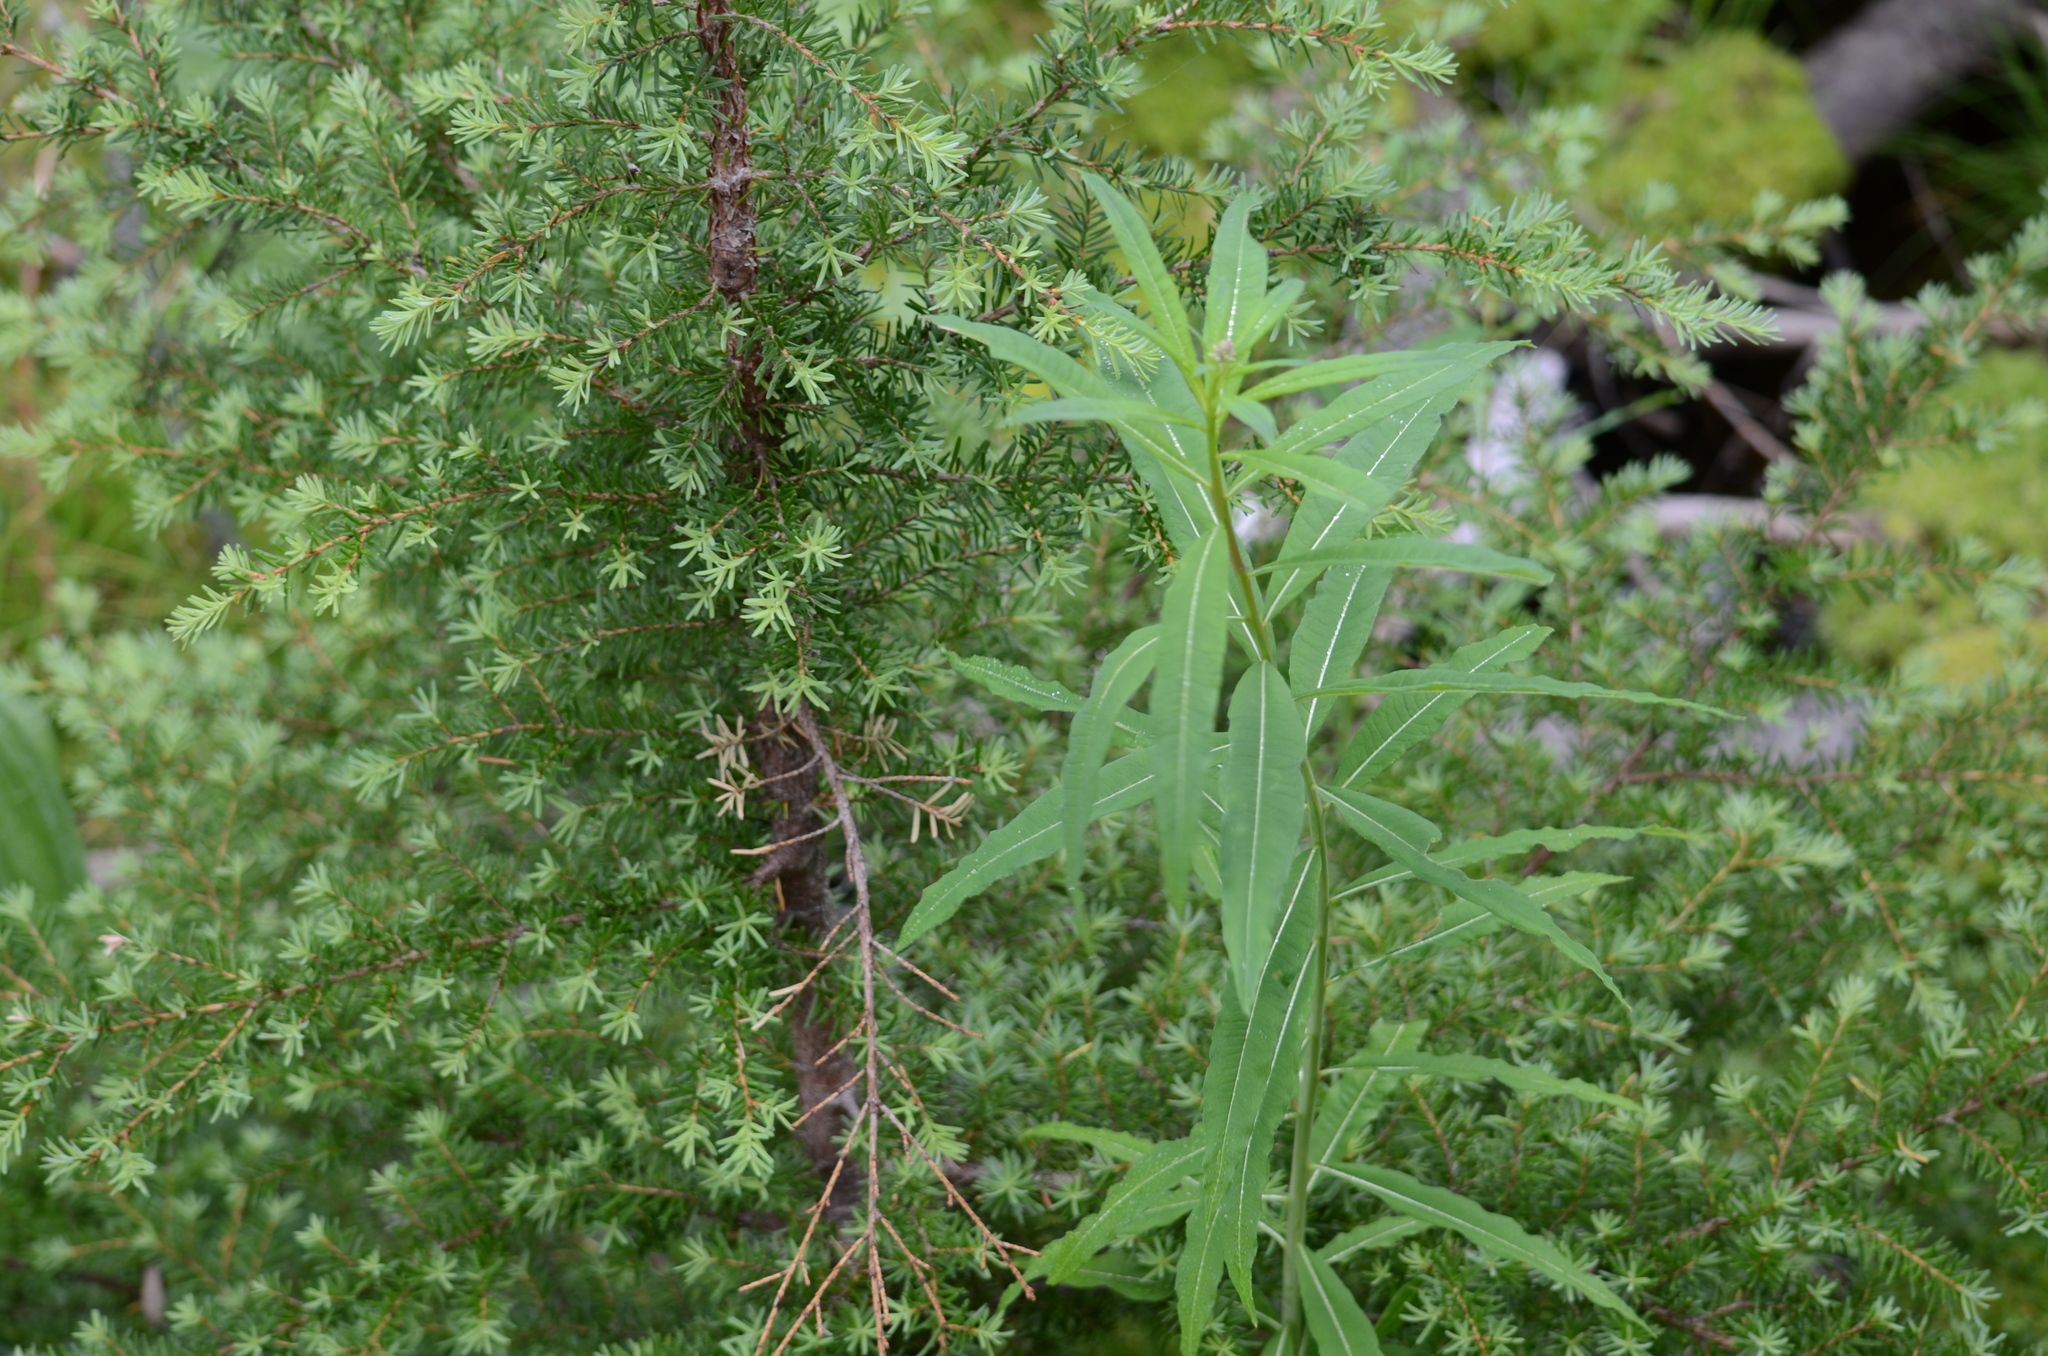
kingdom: Plantae
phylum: Tracheophyta
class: Magnoliopsida
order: Myrtales
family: Onagraceae
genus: Chamaenerion
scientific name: Chamaenerion angustifolium
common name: Fireweed
